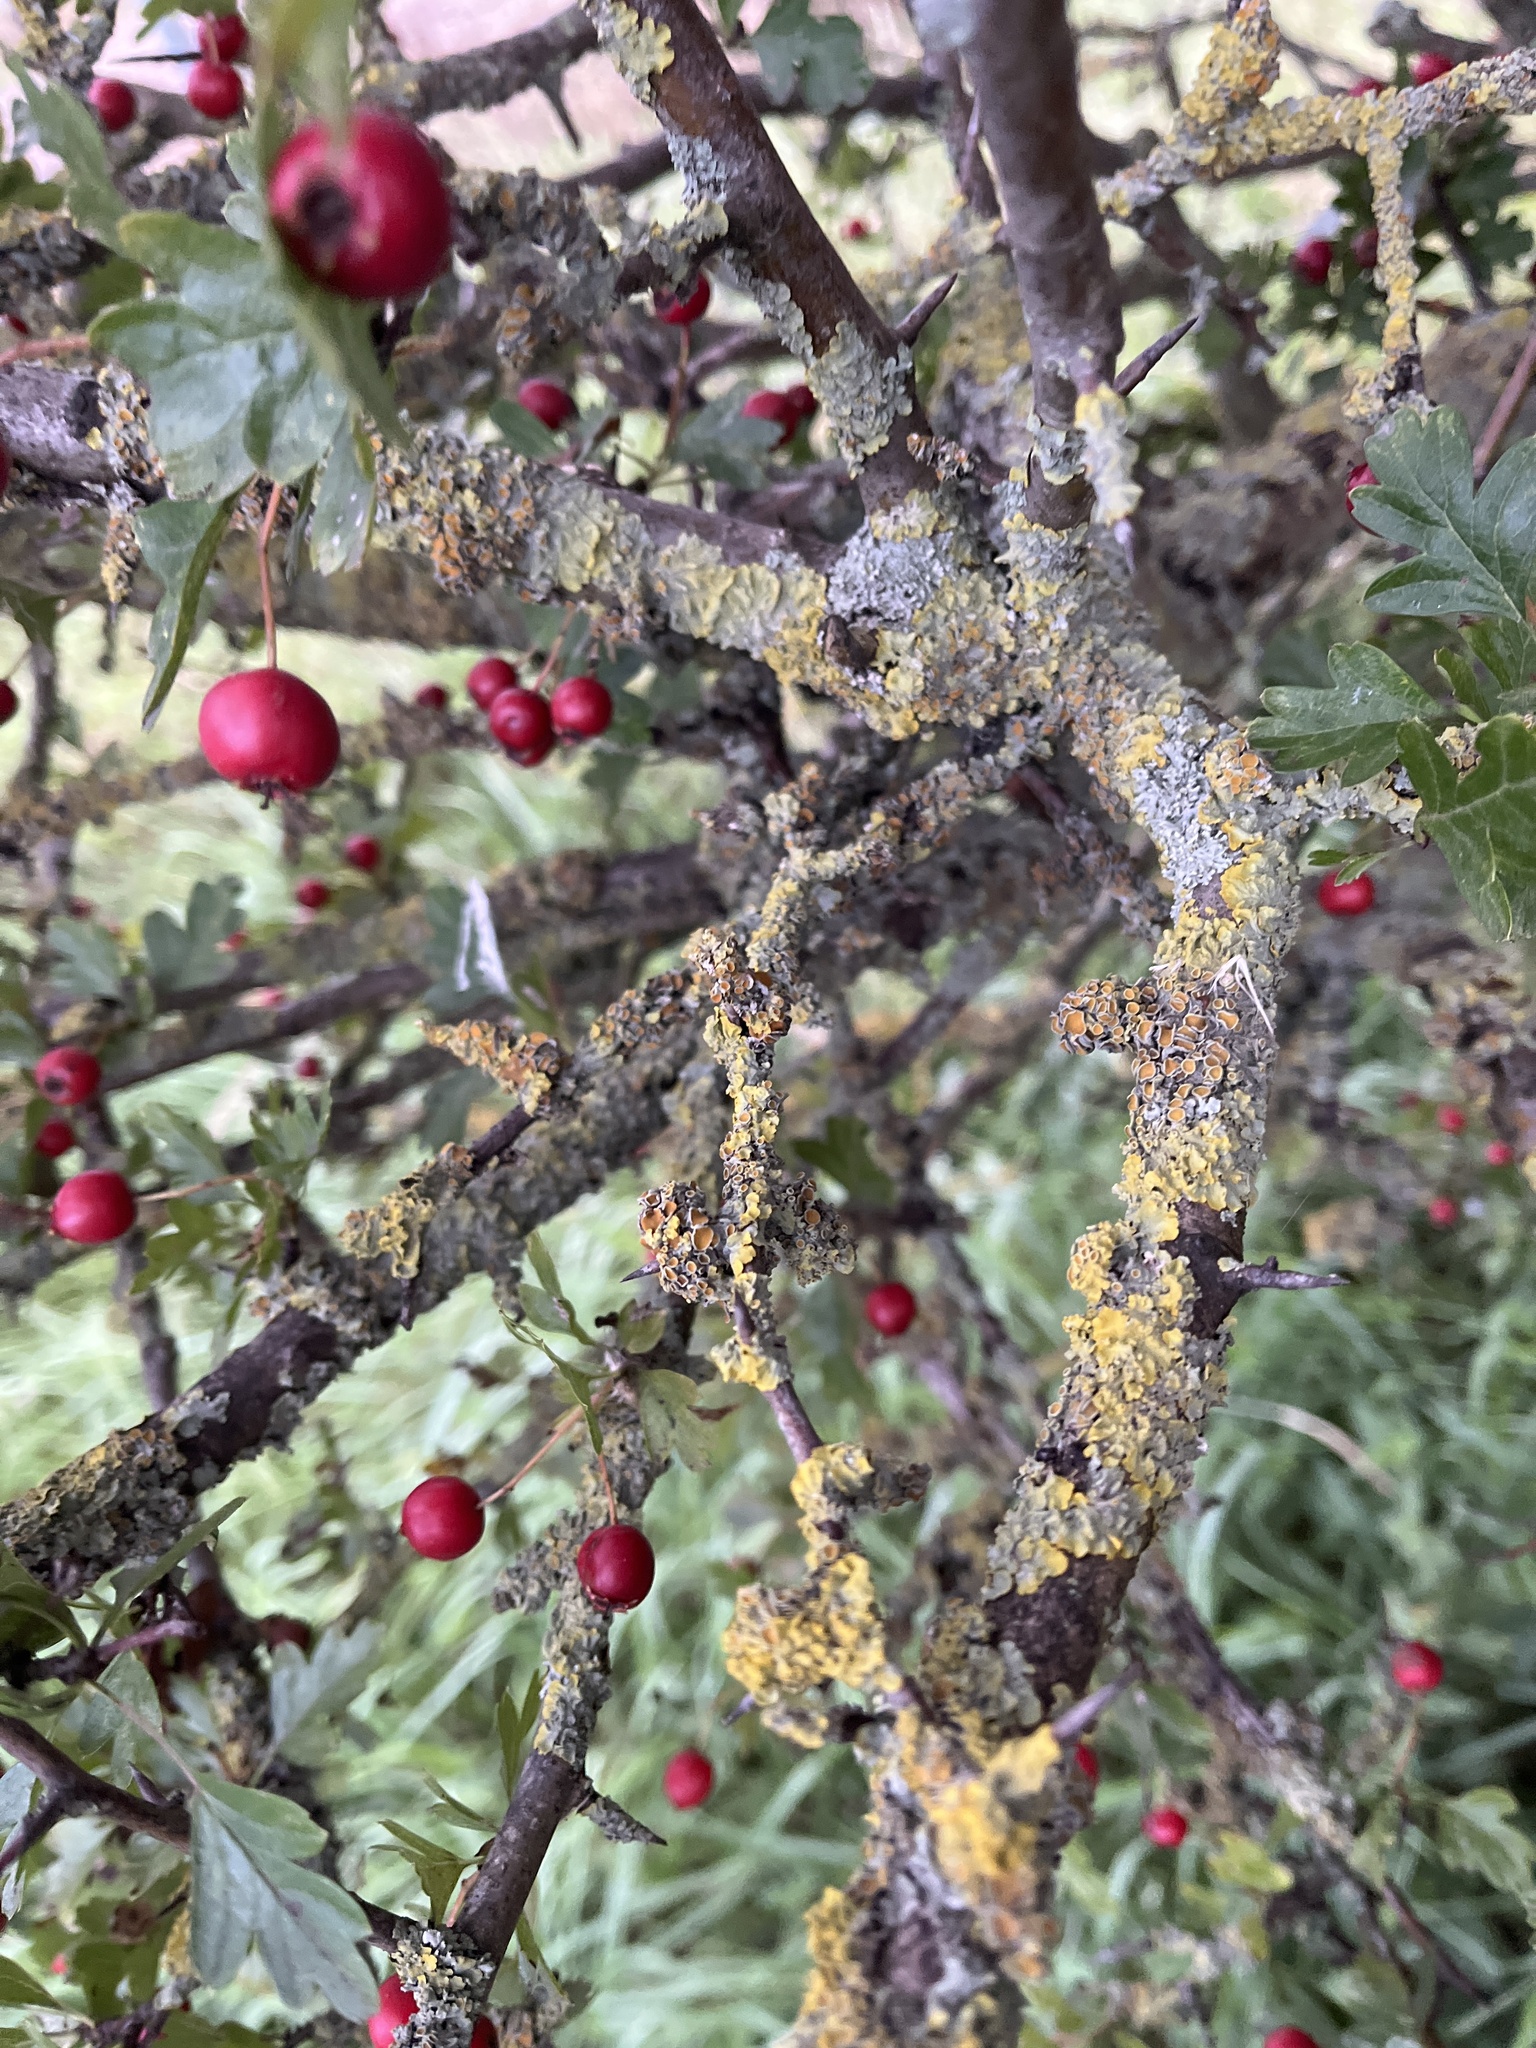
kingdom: Fungi
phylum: Ascomycota
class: Lecanoromycetes
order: Teloschistales
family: Teloschistaceae
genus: Xanthoria
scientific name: Xanthoria parietina
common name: Common orange lichen
